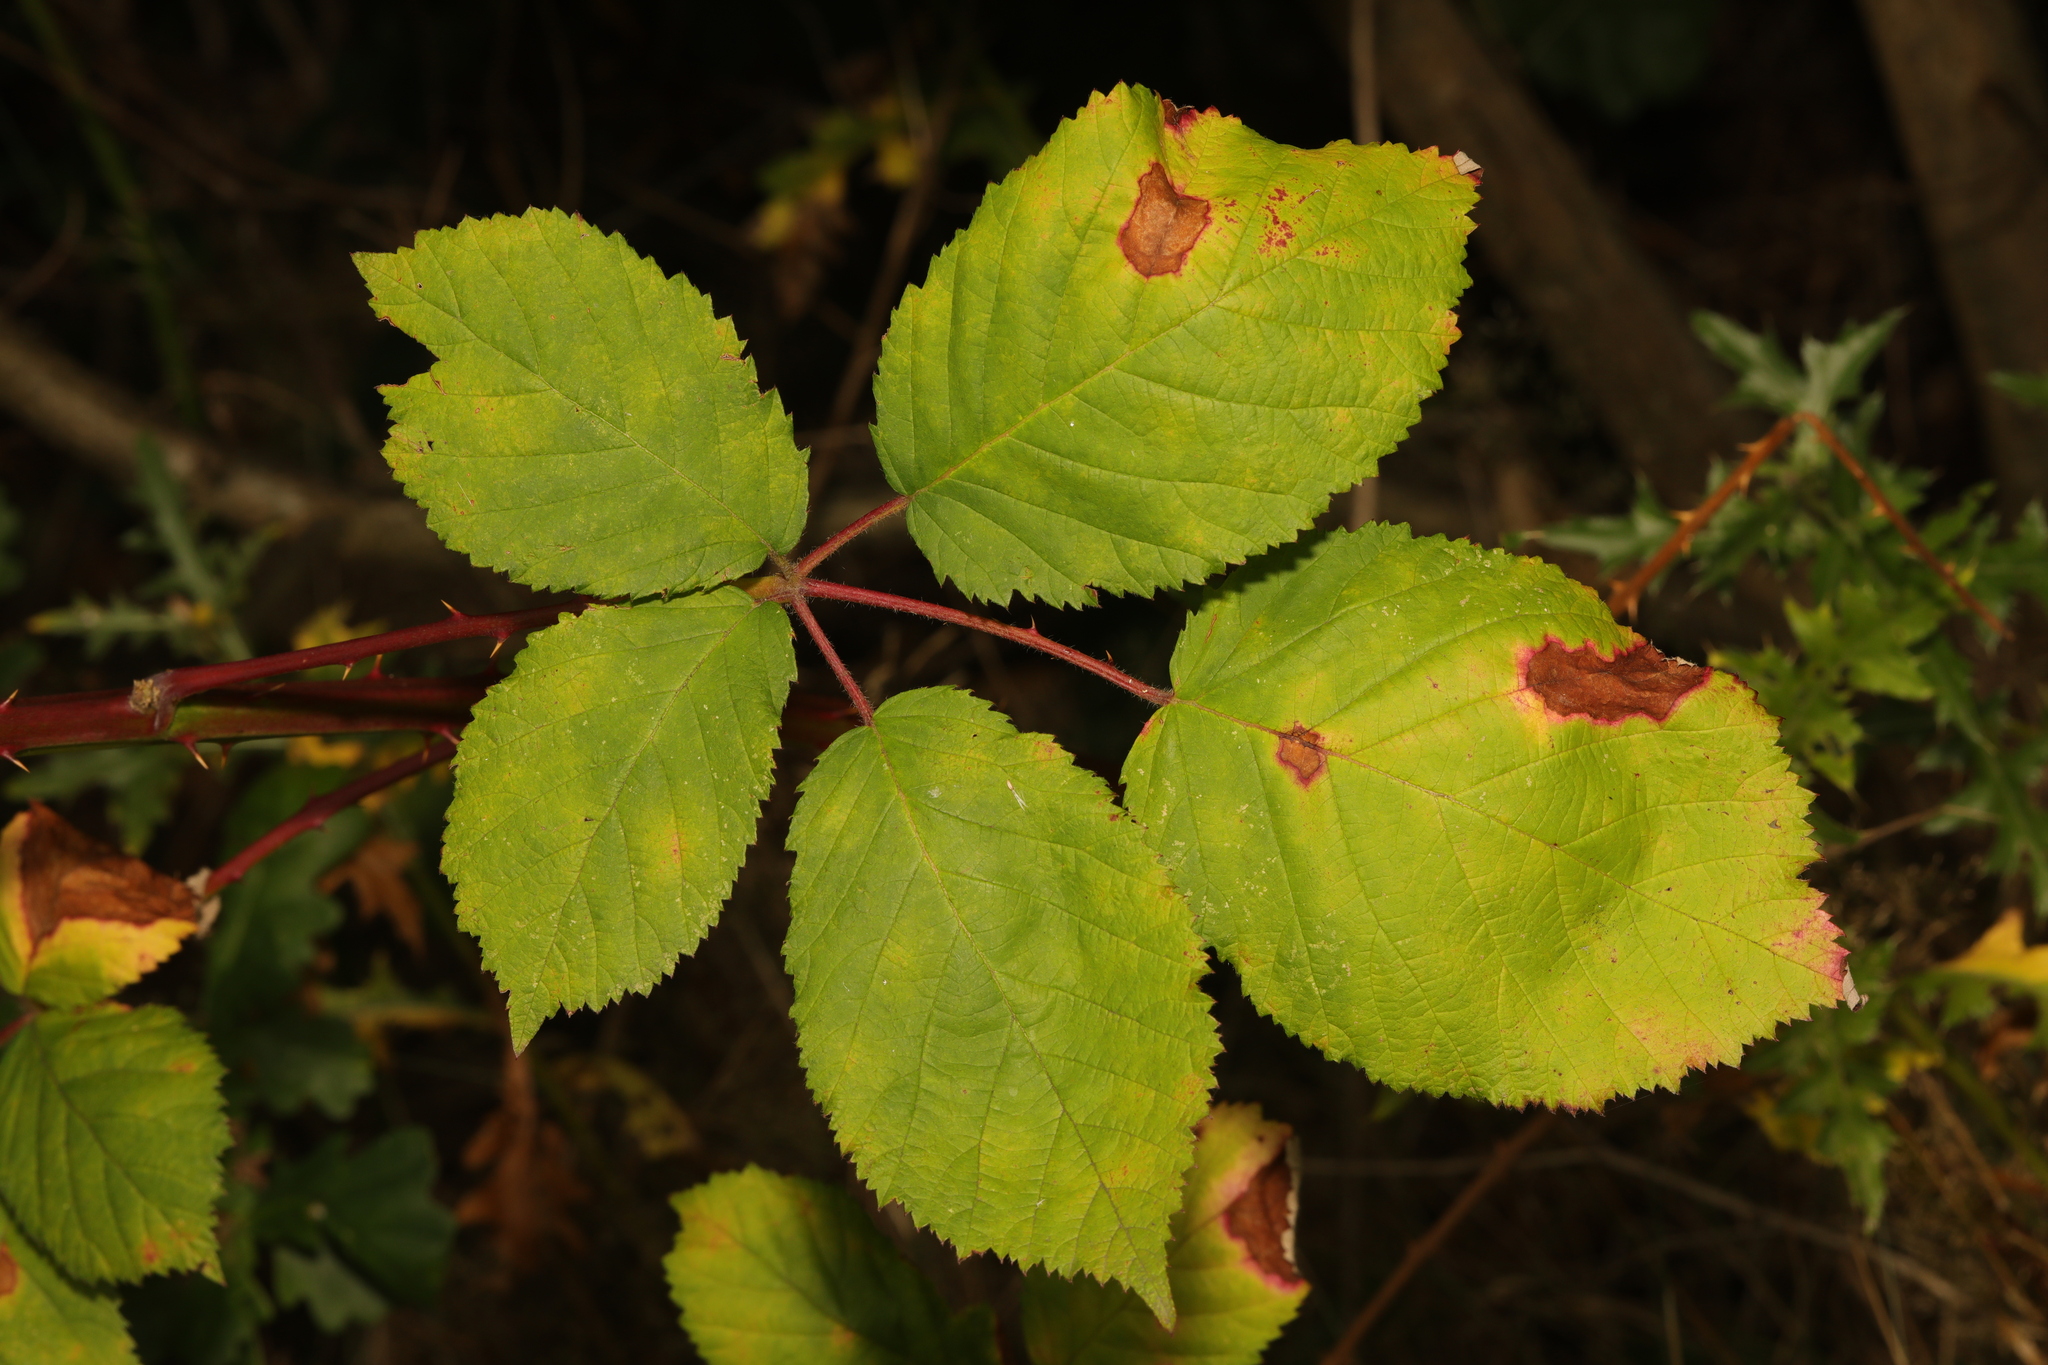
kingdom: Plantae
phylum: Tracheophyta
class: Magnoliopsida
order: Rosales
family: Rosaceae
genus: Rubus
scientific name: Rubus armeniacus
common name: Himalayan blackberry
